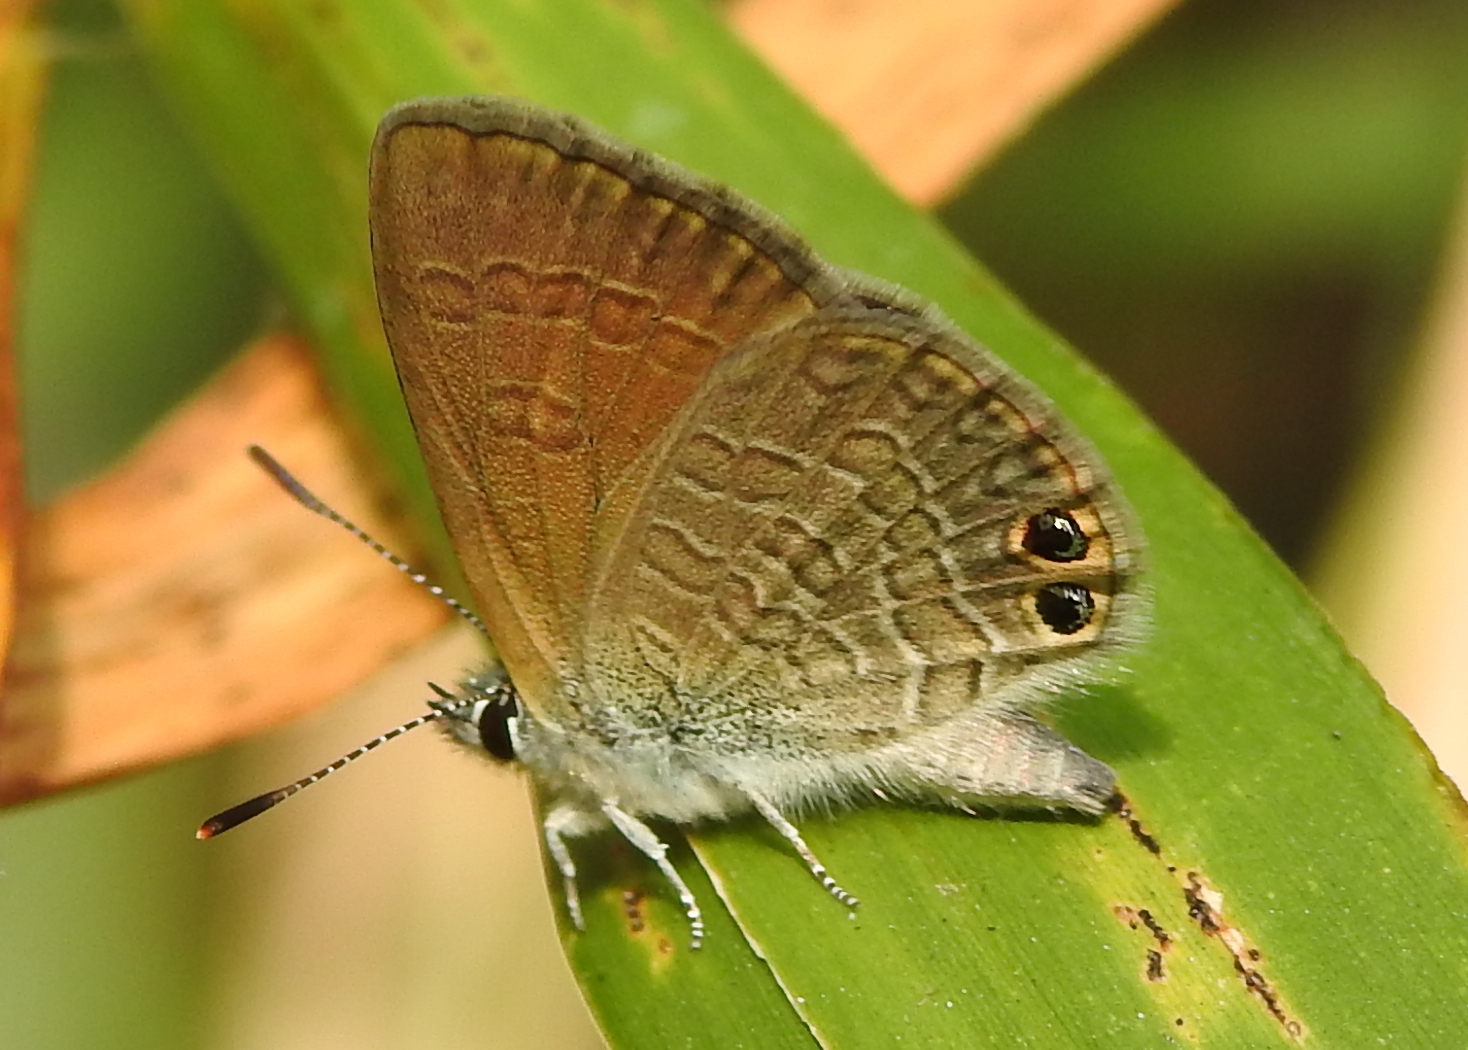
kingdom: Animalia
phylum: Arthropoda
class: Insecta
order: Lepidoptera
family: Lycaenidae
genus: Nacaduba
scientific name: Nacaduba biocellata
